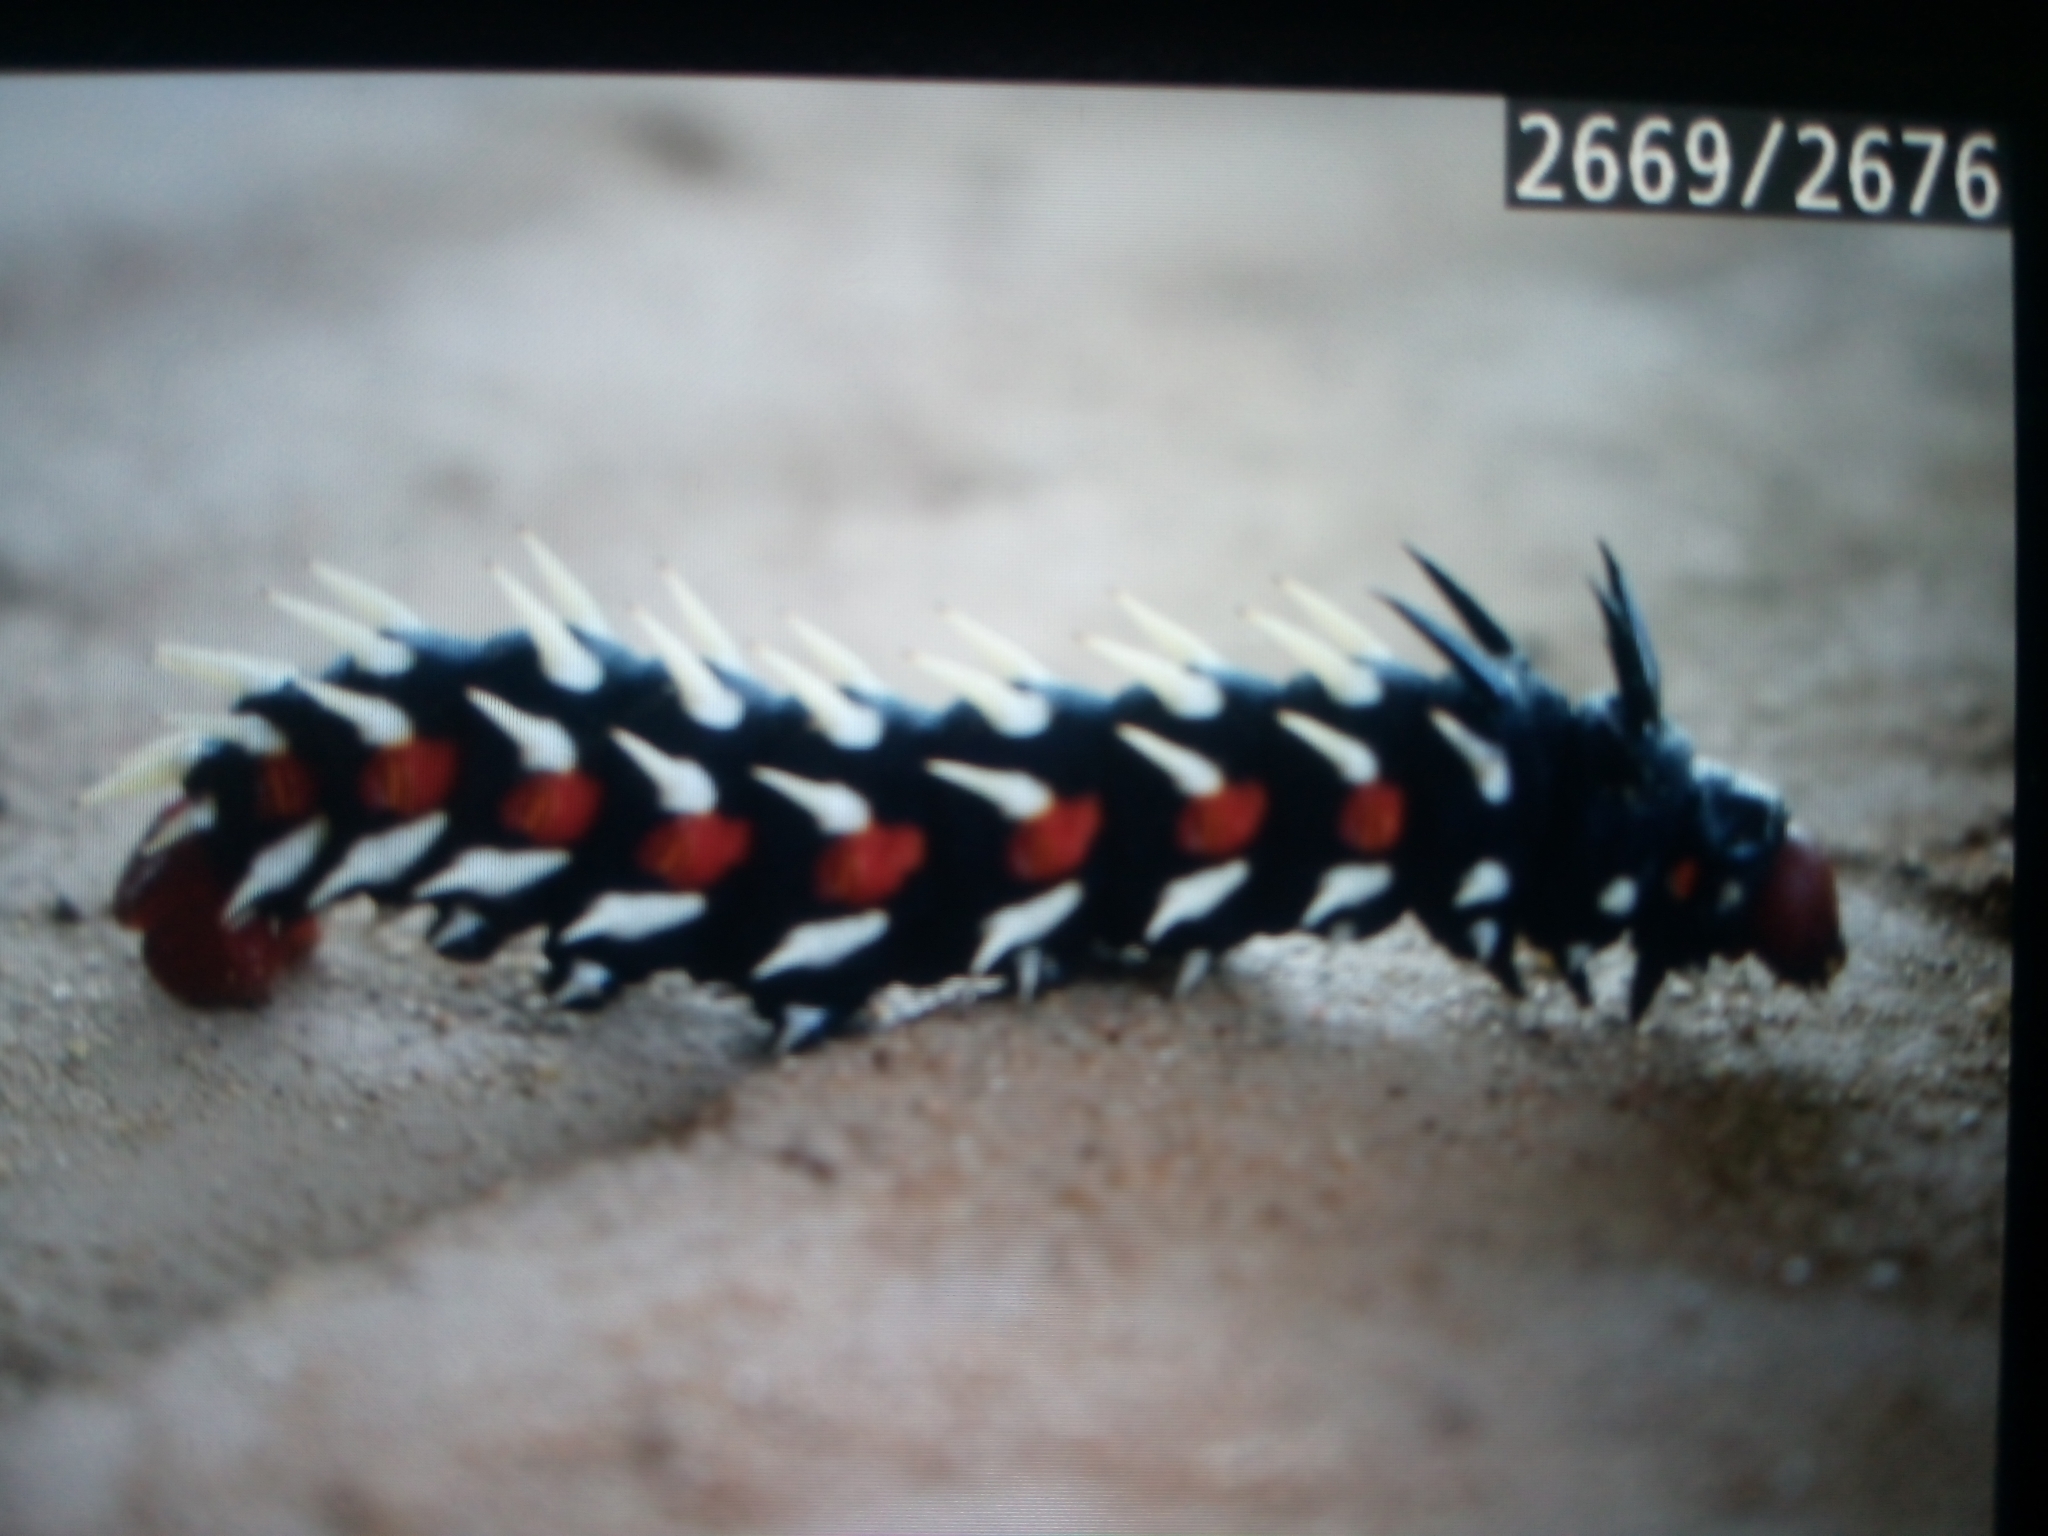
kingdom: Animalia
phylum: Arthropoda
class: Insecta
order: Lepidoptera
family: Saturniidae
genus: Bunaea
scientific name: Bunaea alcinoe
